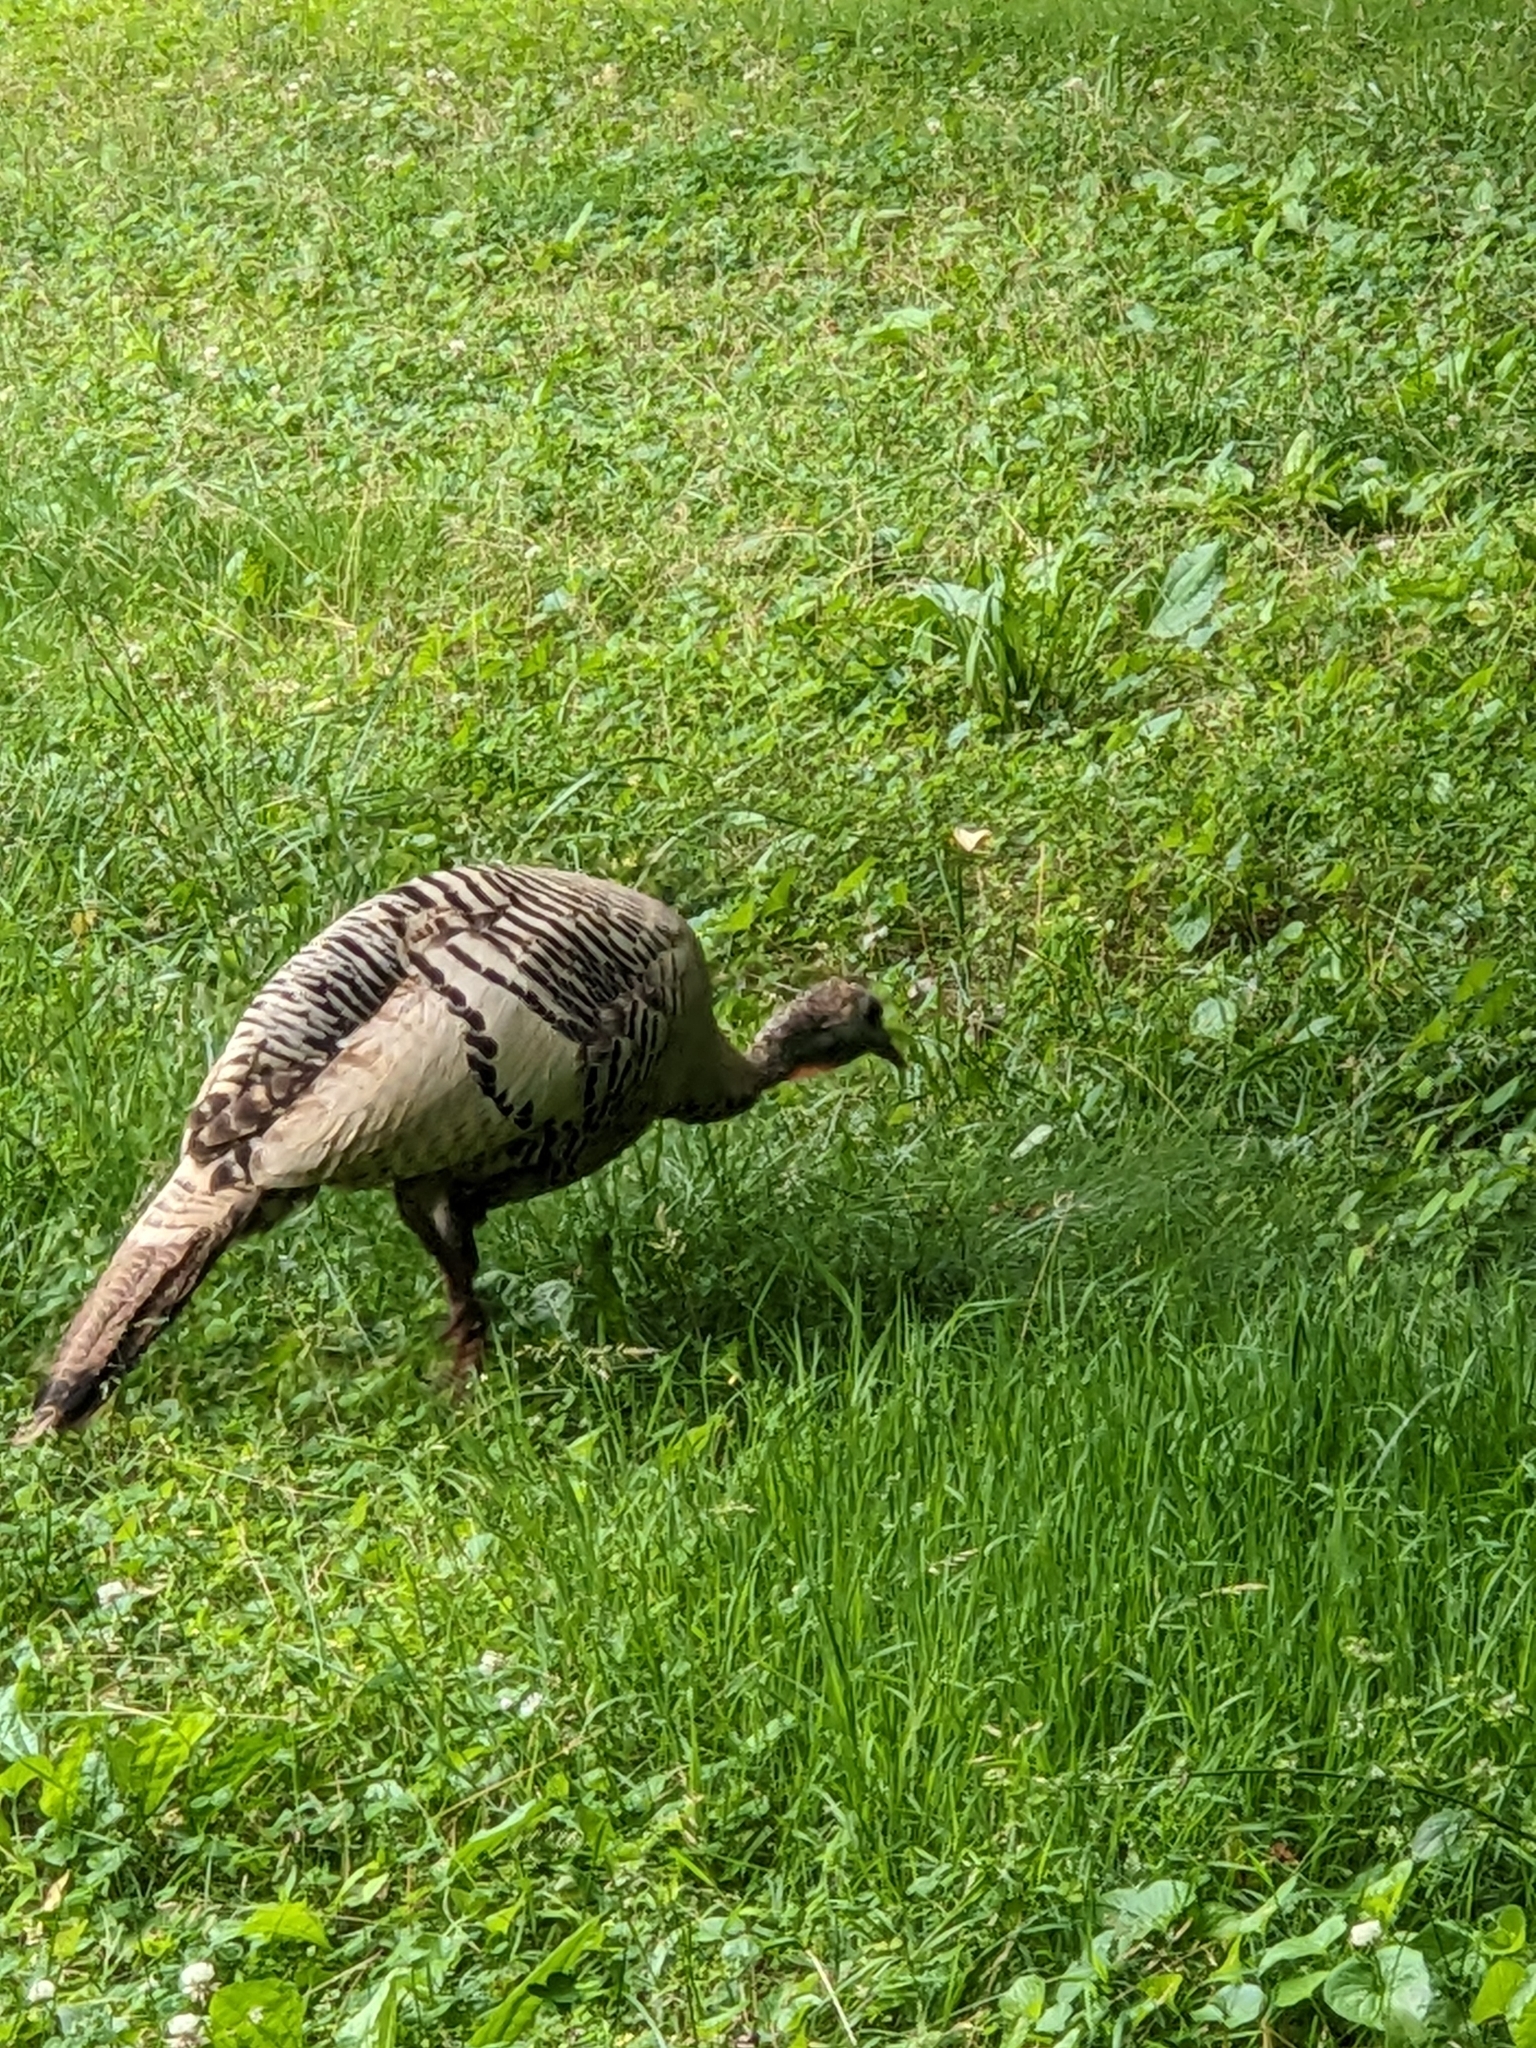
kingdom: Animalia
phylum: Chordata
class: Aves
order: Galliformes
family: Phasianidae
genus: Meleagris
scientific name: Meleagris gallopavo
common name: Wild turkey
